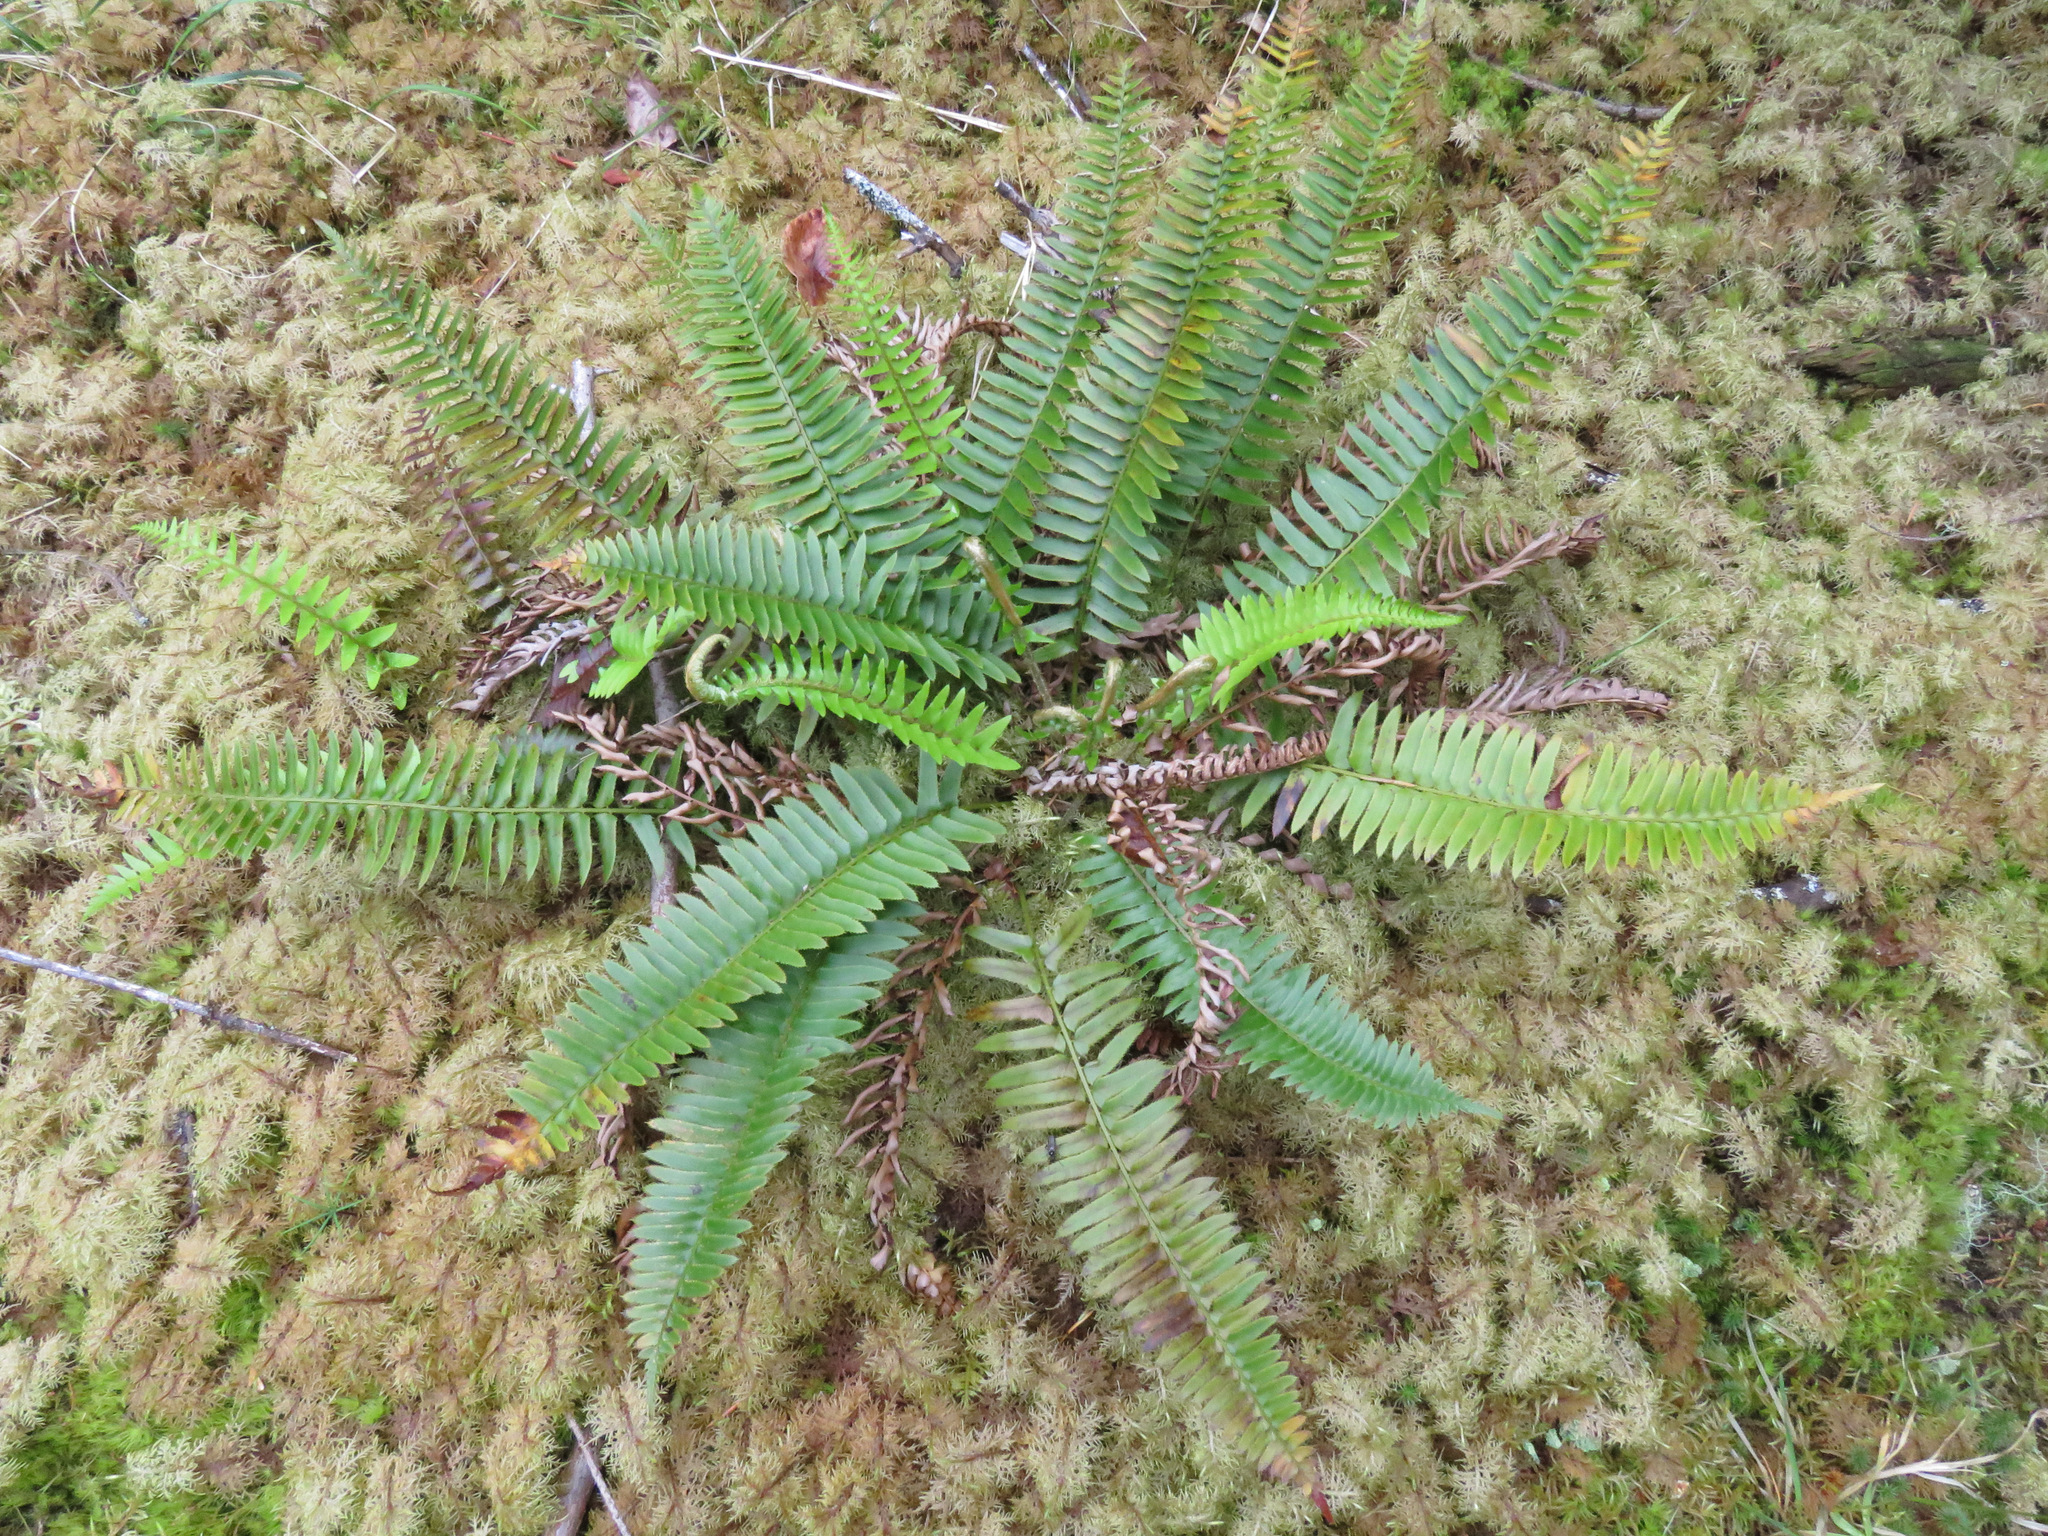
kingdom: Plantae
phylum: Tracheophyta
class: Polypodiopsida
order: Polypodiales
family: Dryopteridaceae
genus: Polystichum
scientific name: Polystichum munitum
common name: Western sword-fern
